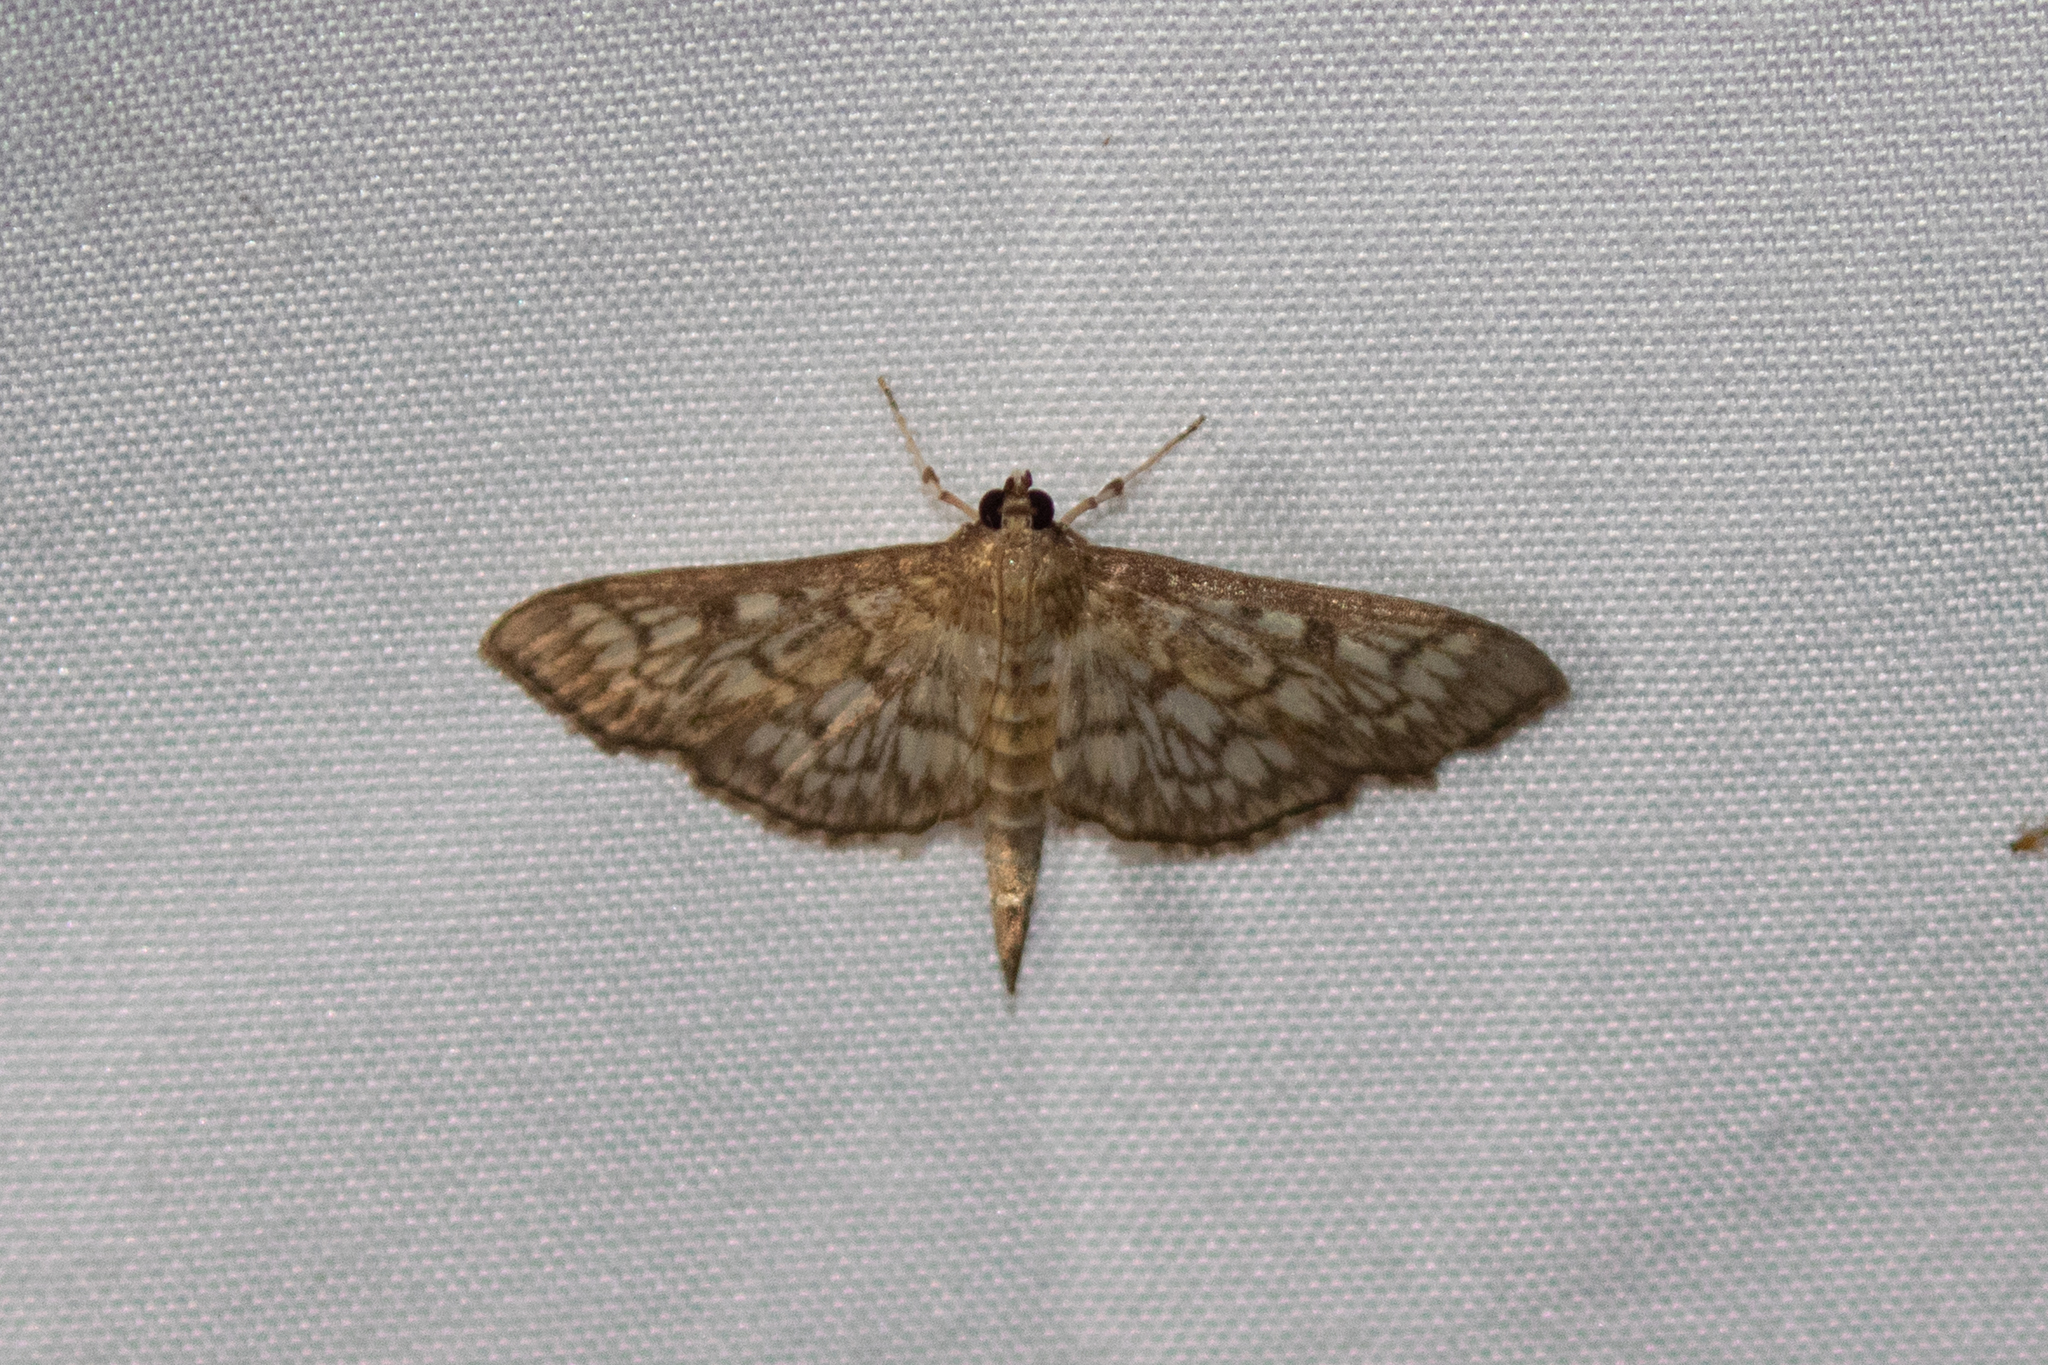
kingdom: Animalia
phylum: Arthropoda
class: Insecta
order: Lepidoptera
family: Crambidae
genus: Herpetogramma
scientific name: Herpetogramma pertextalis
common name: Bold-feathered grass moth
